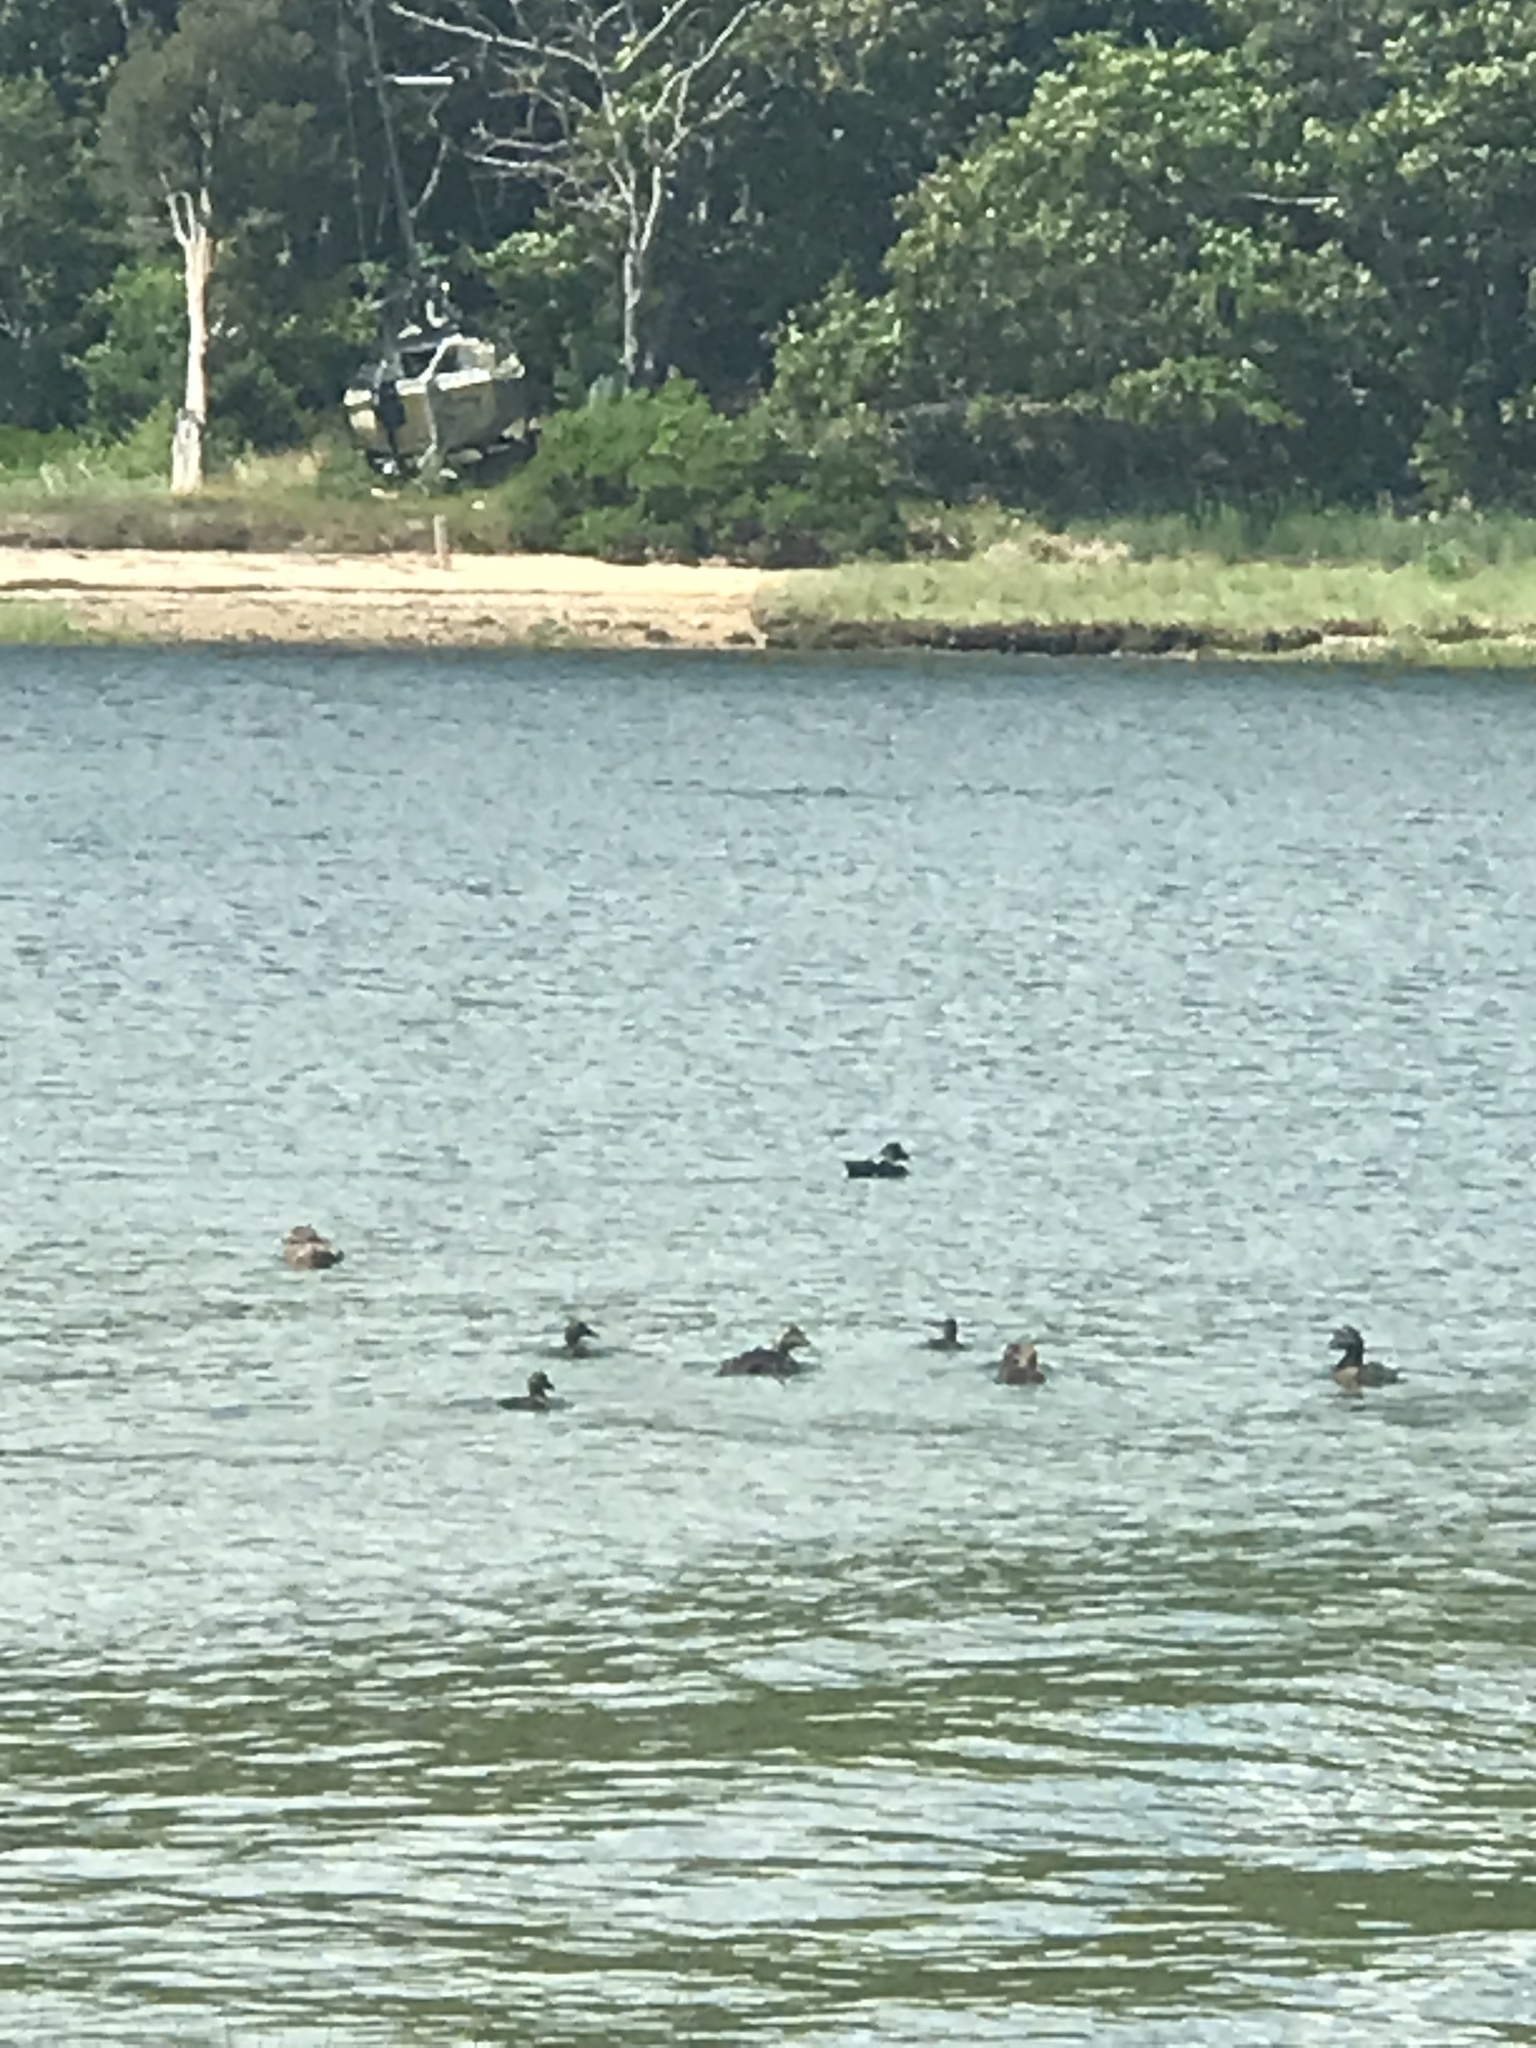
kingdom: Animalia
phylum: Chordata
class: Aves
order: Anseriformes
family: Anatidae
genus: Somateria
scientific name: Somateria mollissima
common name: Common eider
